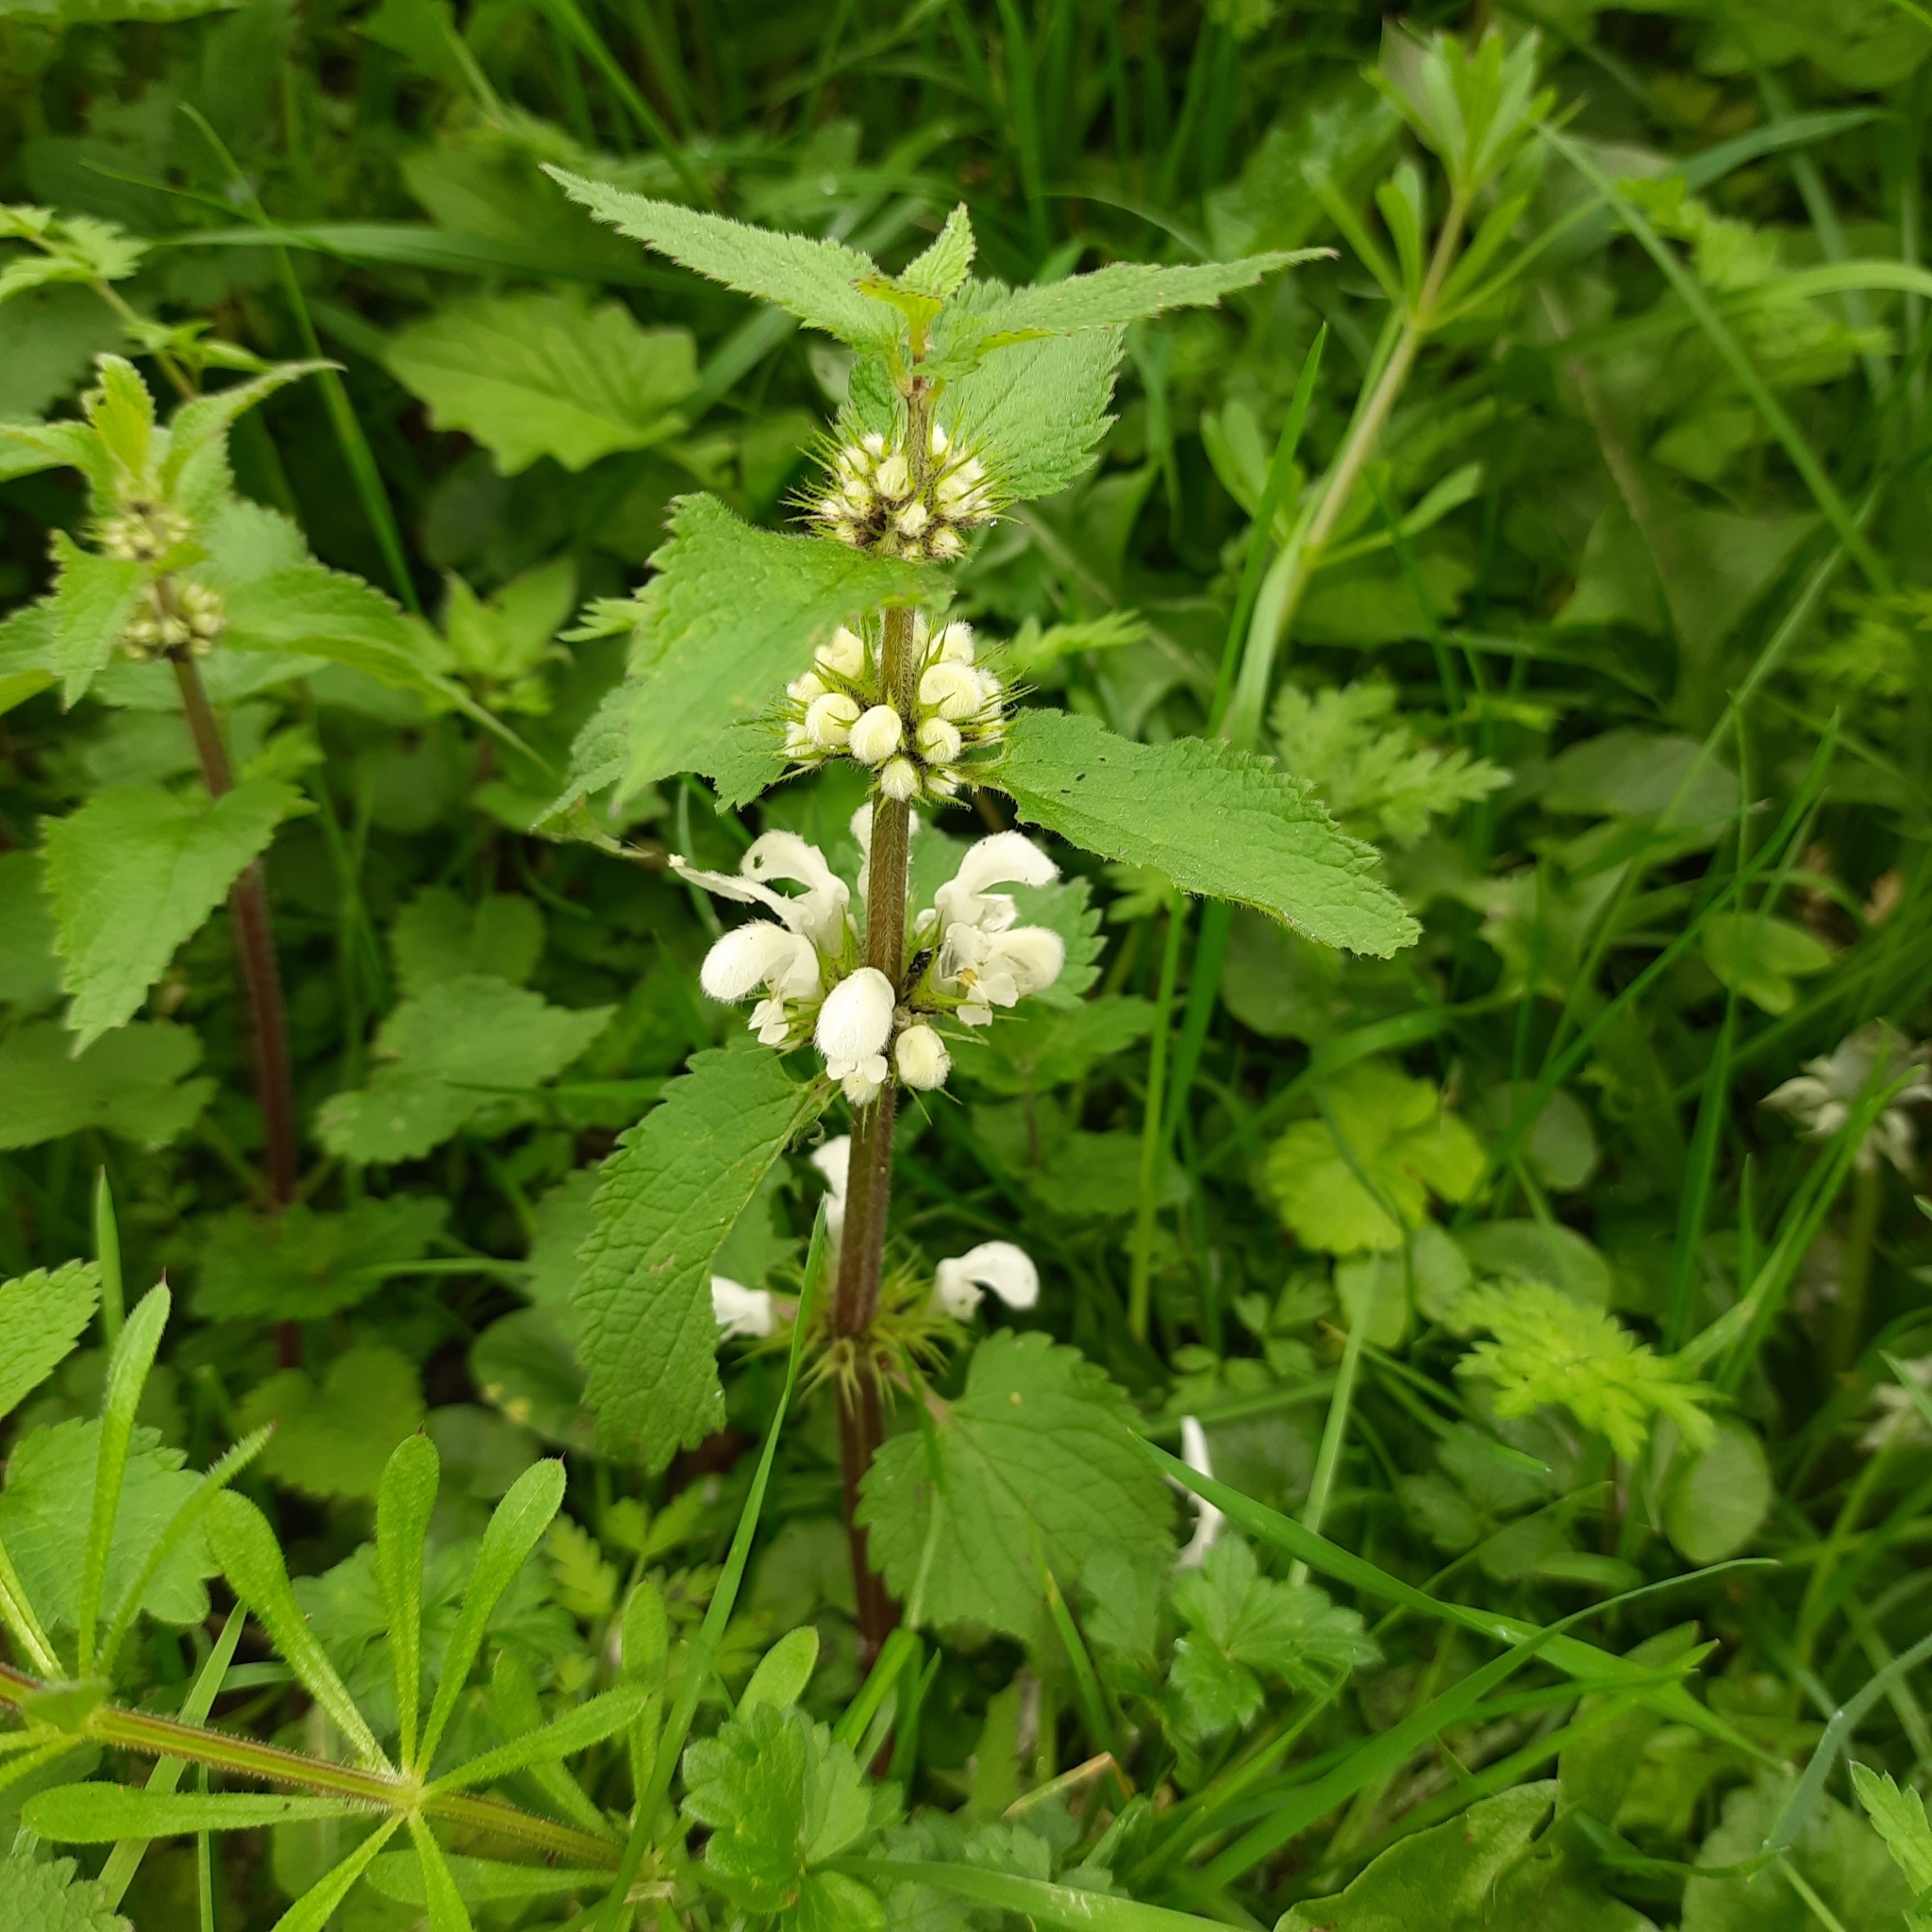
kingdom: Plantae
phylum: Tracheophyta
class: Magnoliopsida
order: Lamiales
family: Lamiaceae
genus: Lamium
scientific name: Lamium album
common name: White dead-nettle
